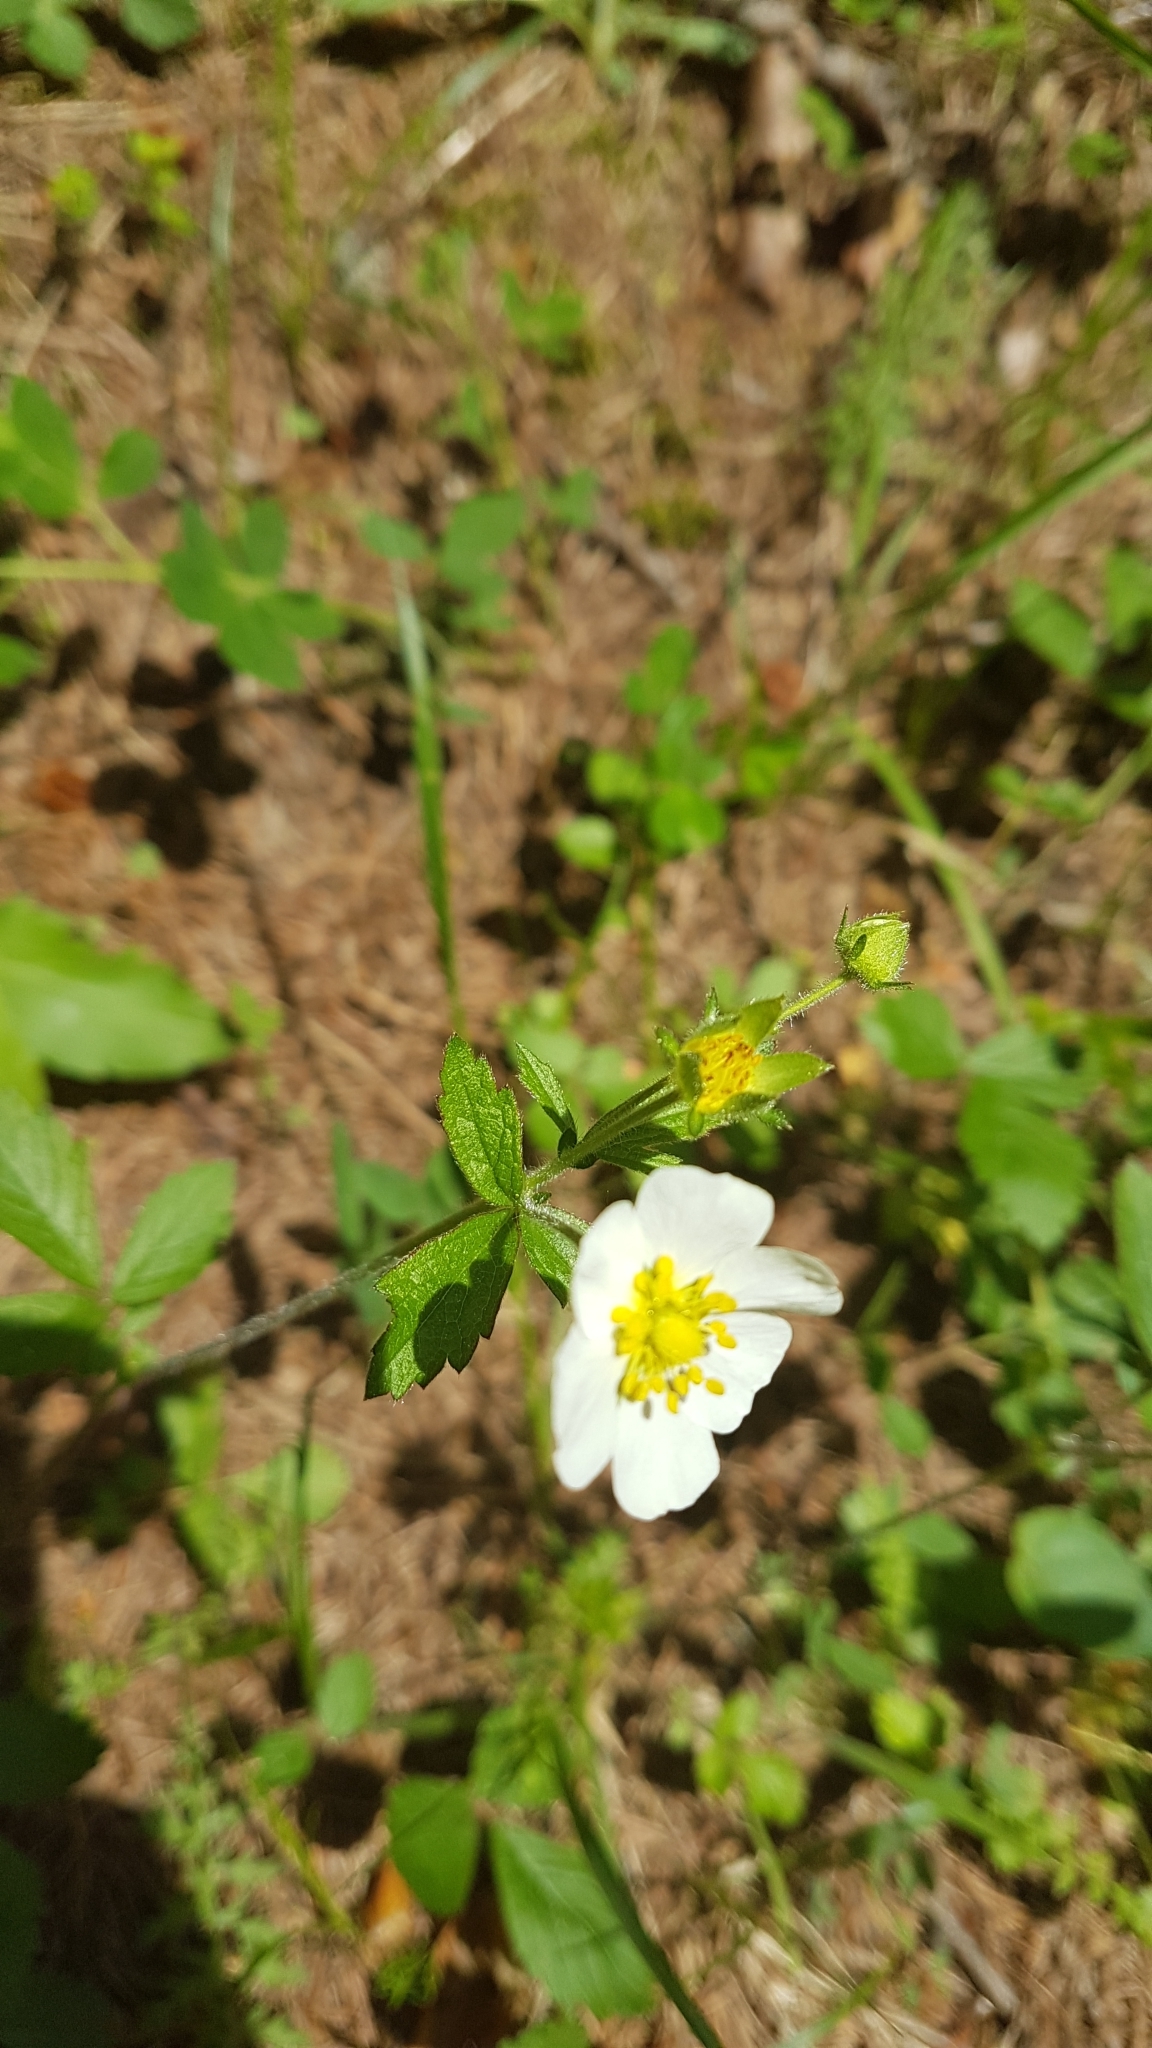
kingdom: Plantae
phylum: Tracheophyta
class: Magnoliopsida
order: Rosales
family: Rosaceae
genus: Fragaria
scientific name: Fragaria vesca
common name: Wild strawberry
